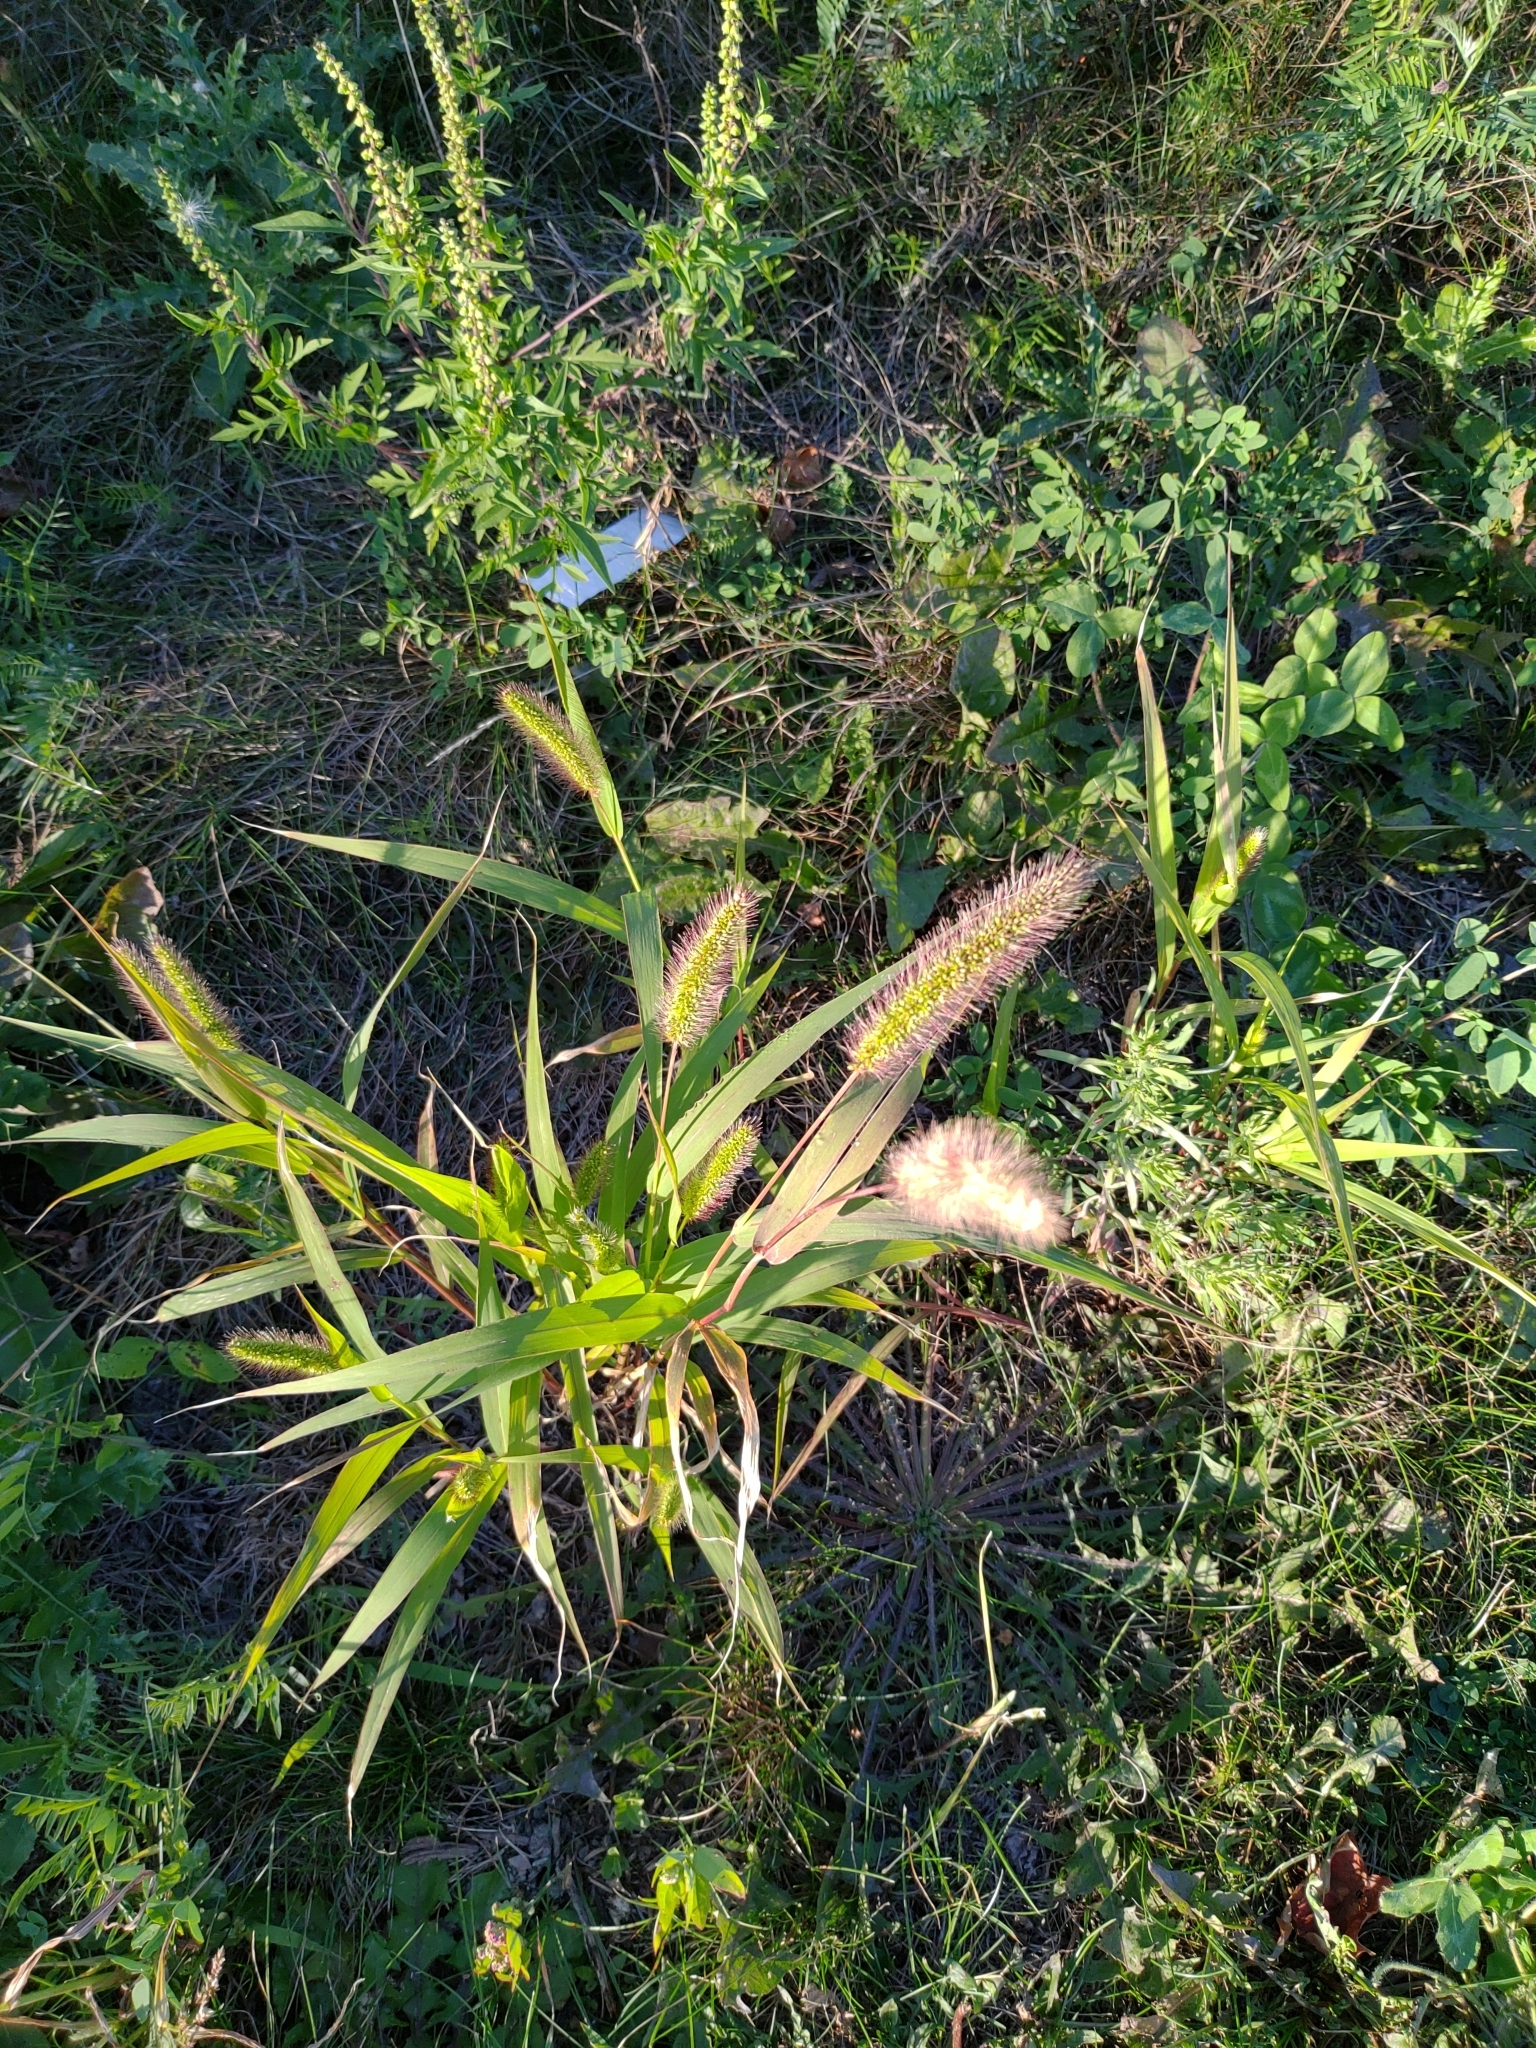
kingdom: Plantae
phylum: Tracheophyta
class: Liliopsida
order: Poales
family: Poaceae
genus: Setaria
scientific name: Setaria viridis
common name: Green bristlegrass
